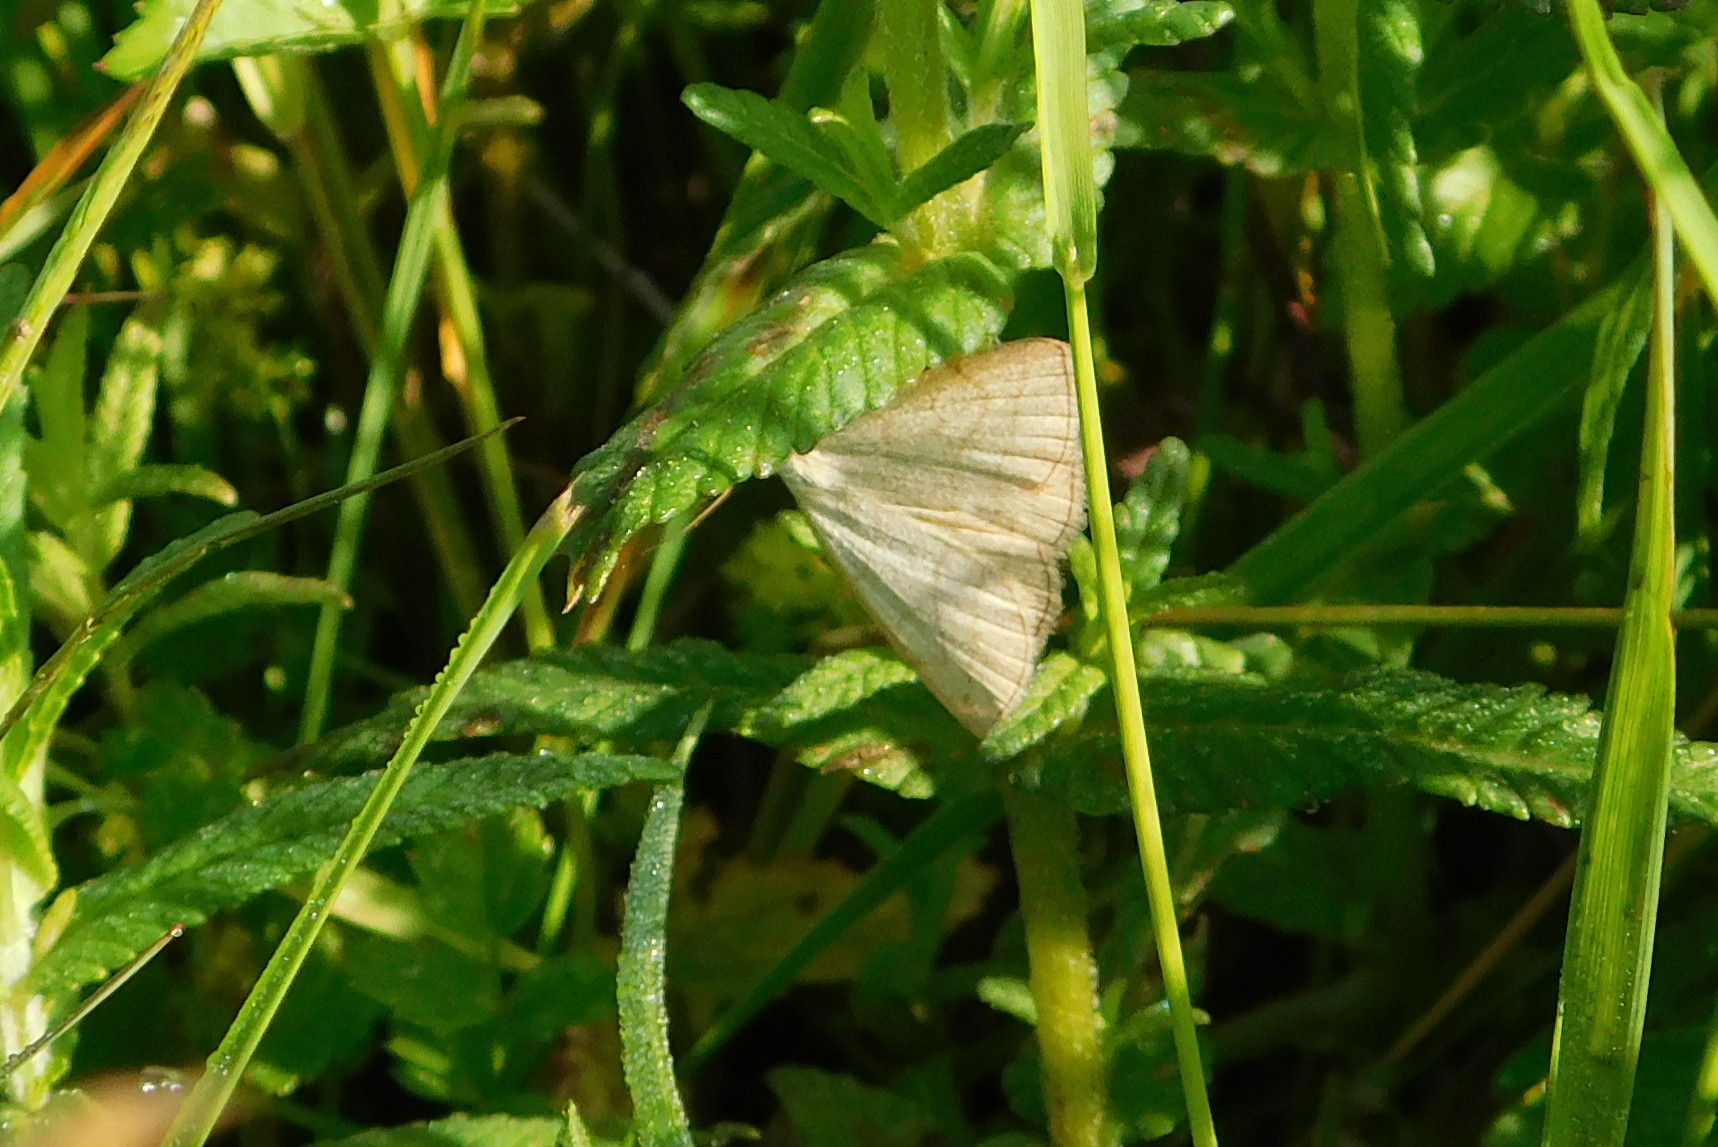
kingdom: Animalia
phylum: Arthropoda
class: Insecta
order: Lepidoptera
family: Erebidae
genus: Polypogon
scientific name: Polypogon tentacularia
